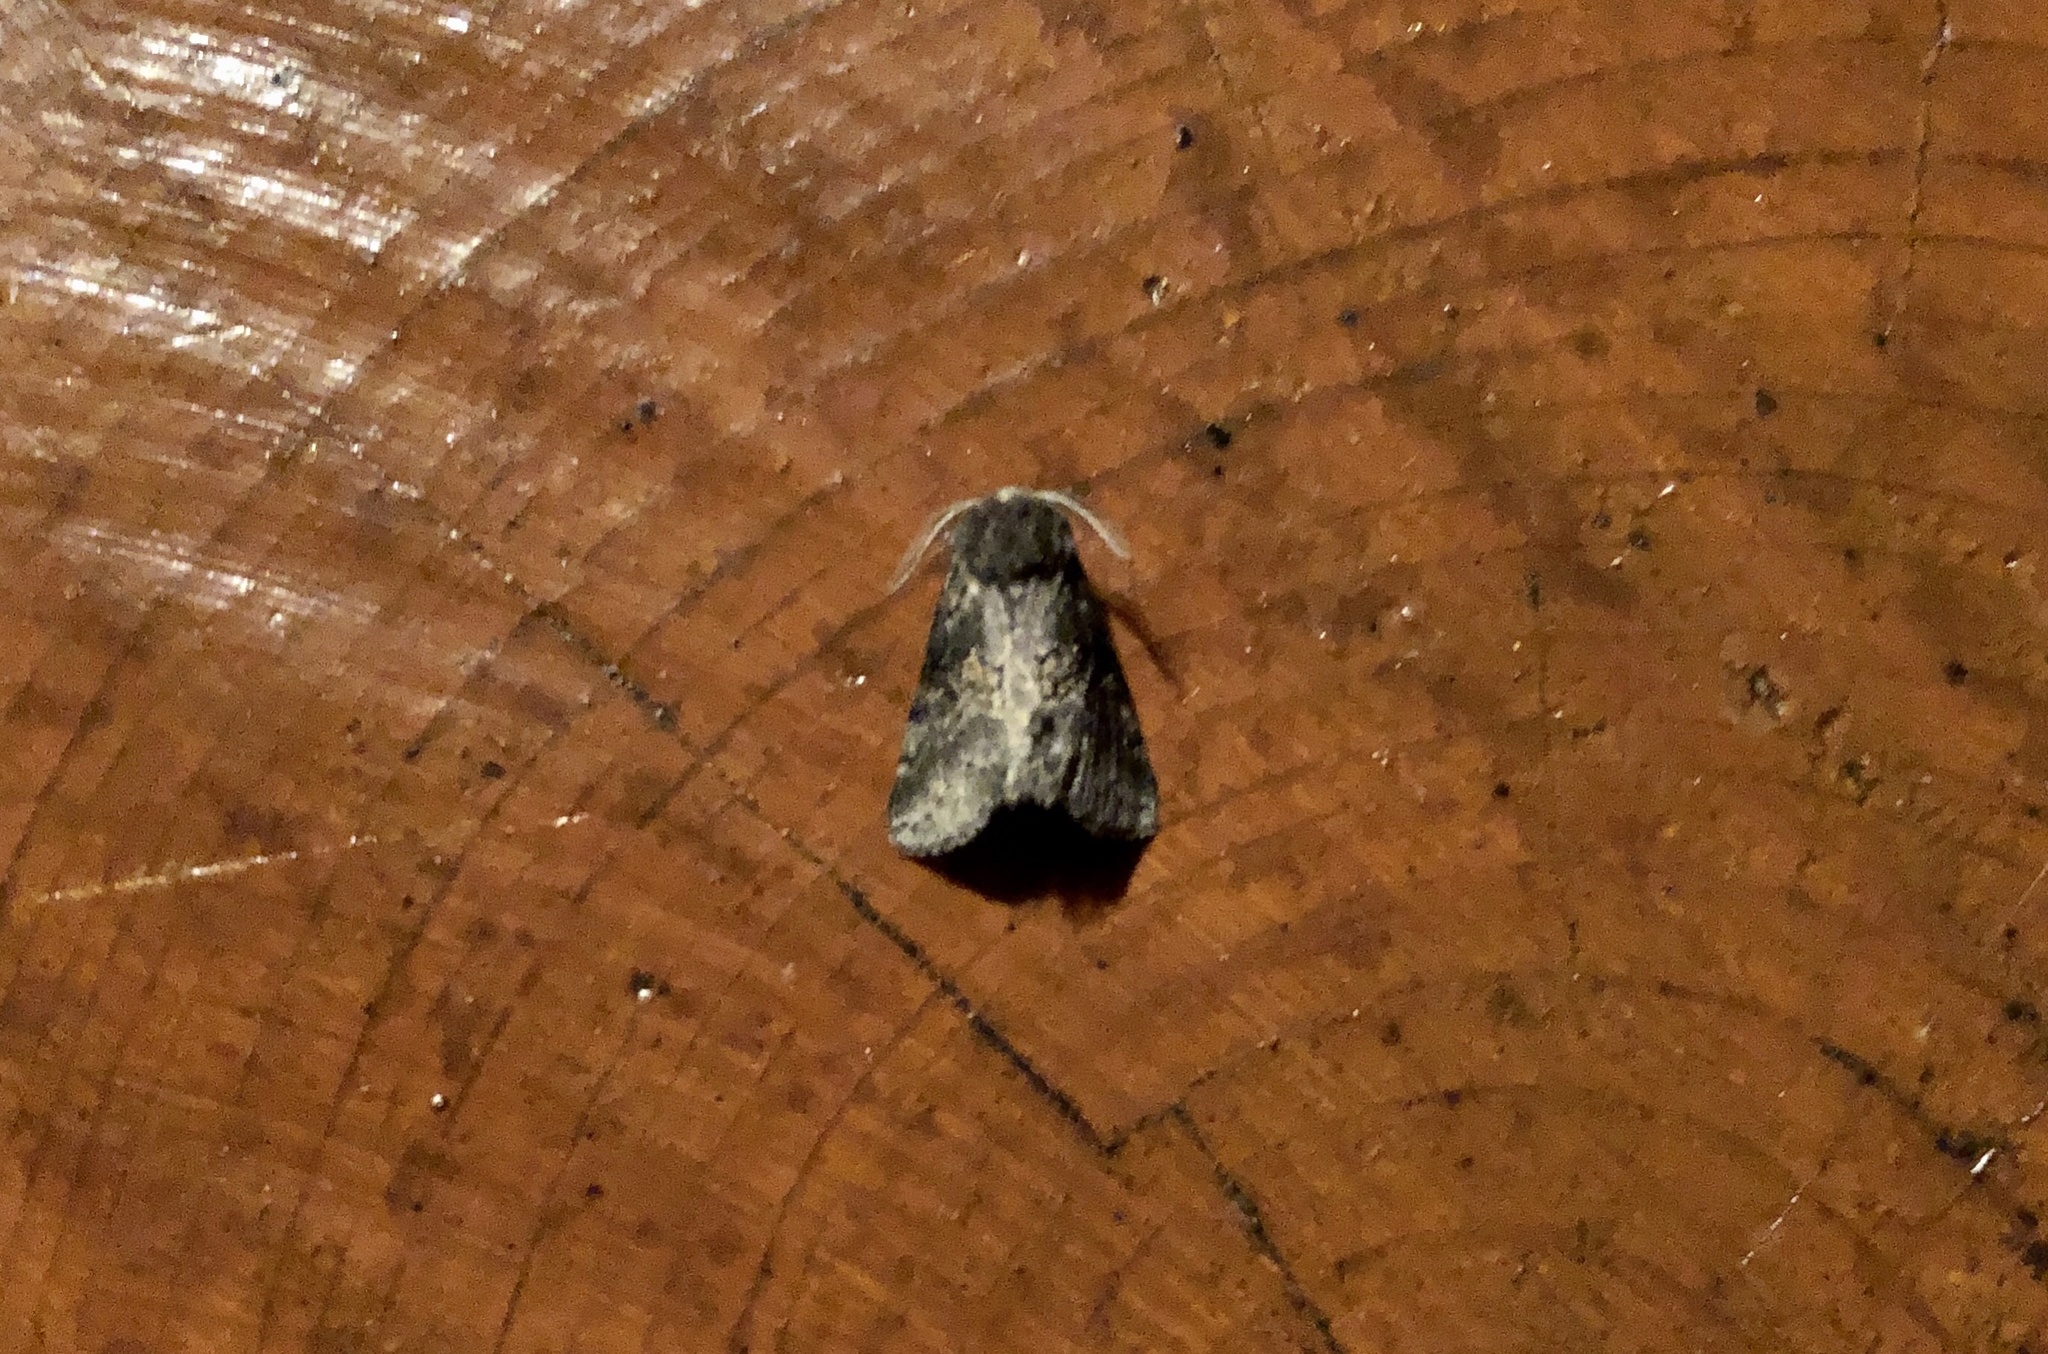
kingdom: Animalia
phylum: Arthropoda
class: Insecta
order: Lepidoptera
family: Notodontidae
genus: Gluphisia
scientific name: Gluphisia septentrionis
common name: Common gluphisia
